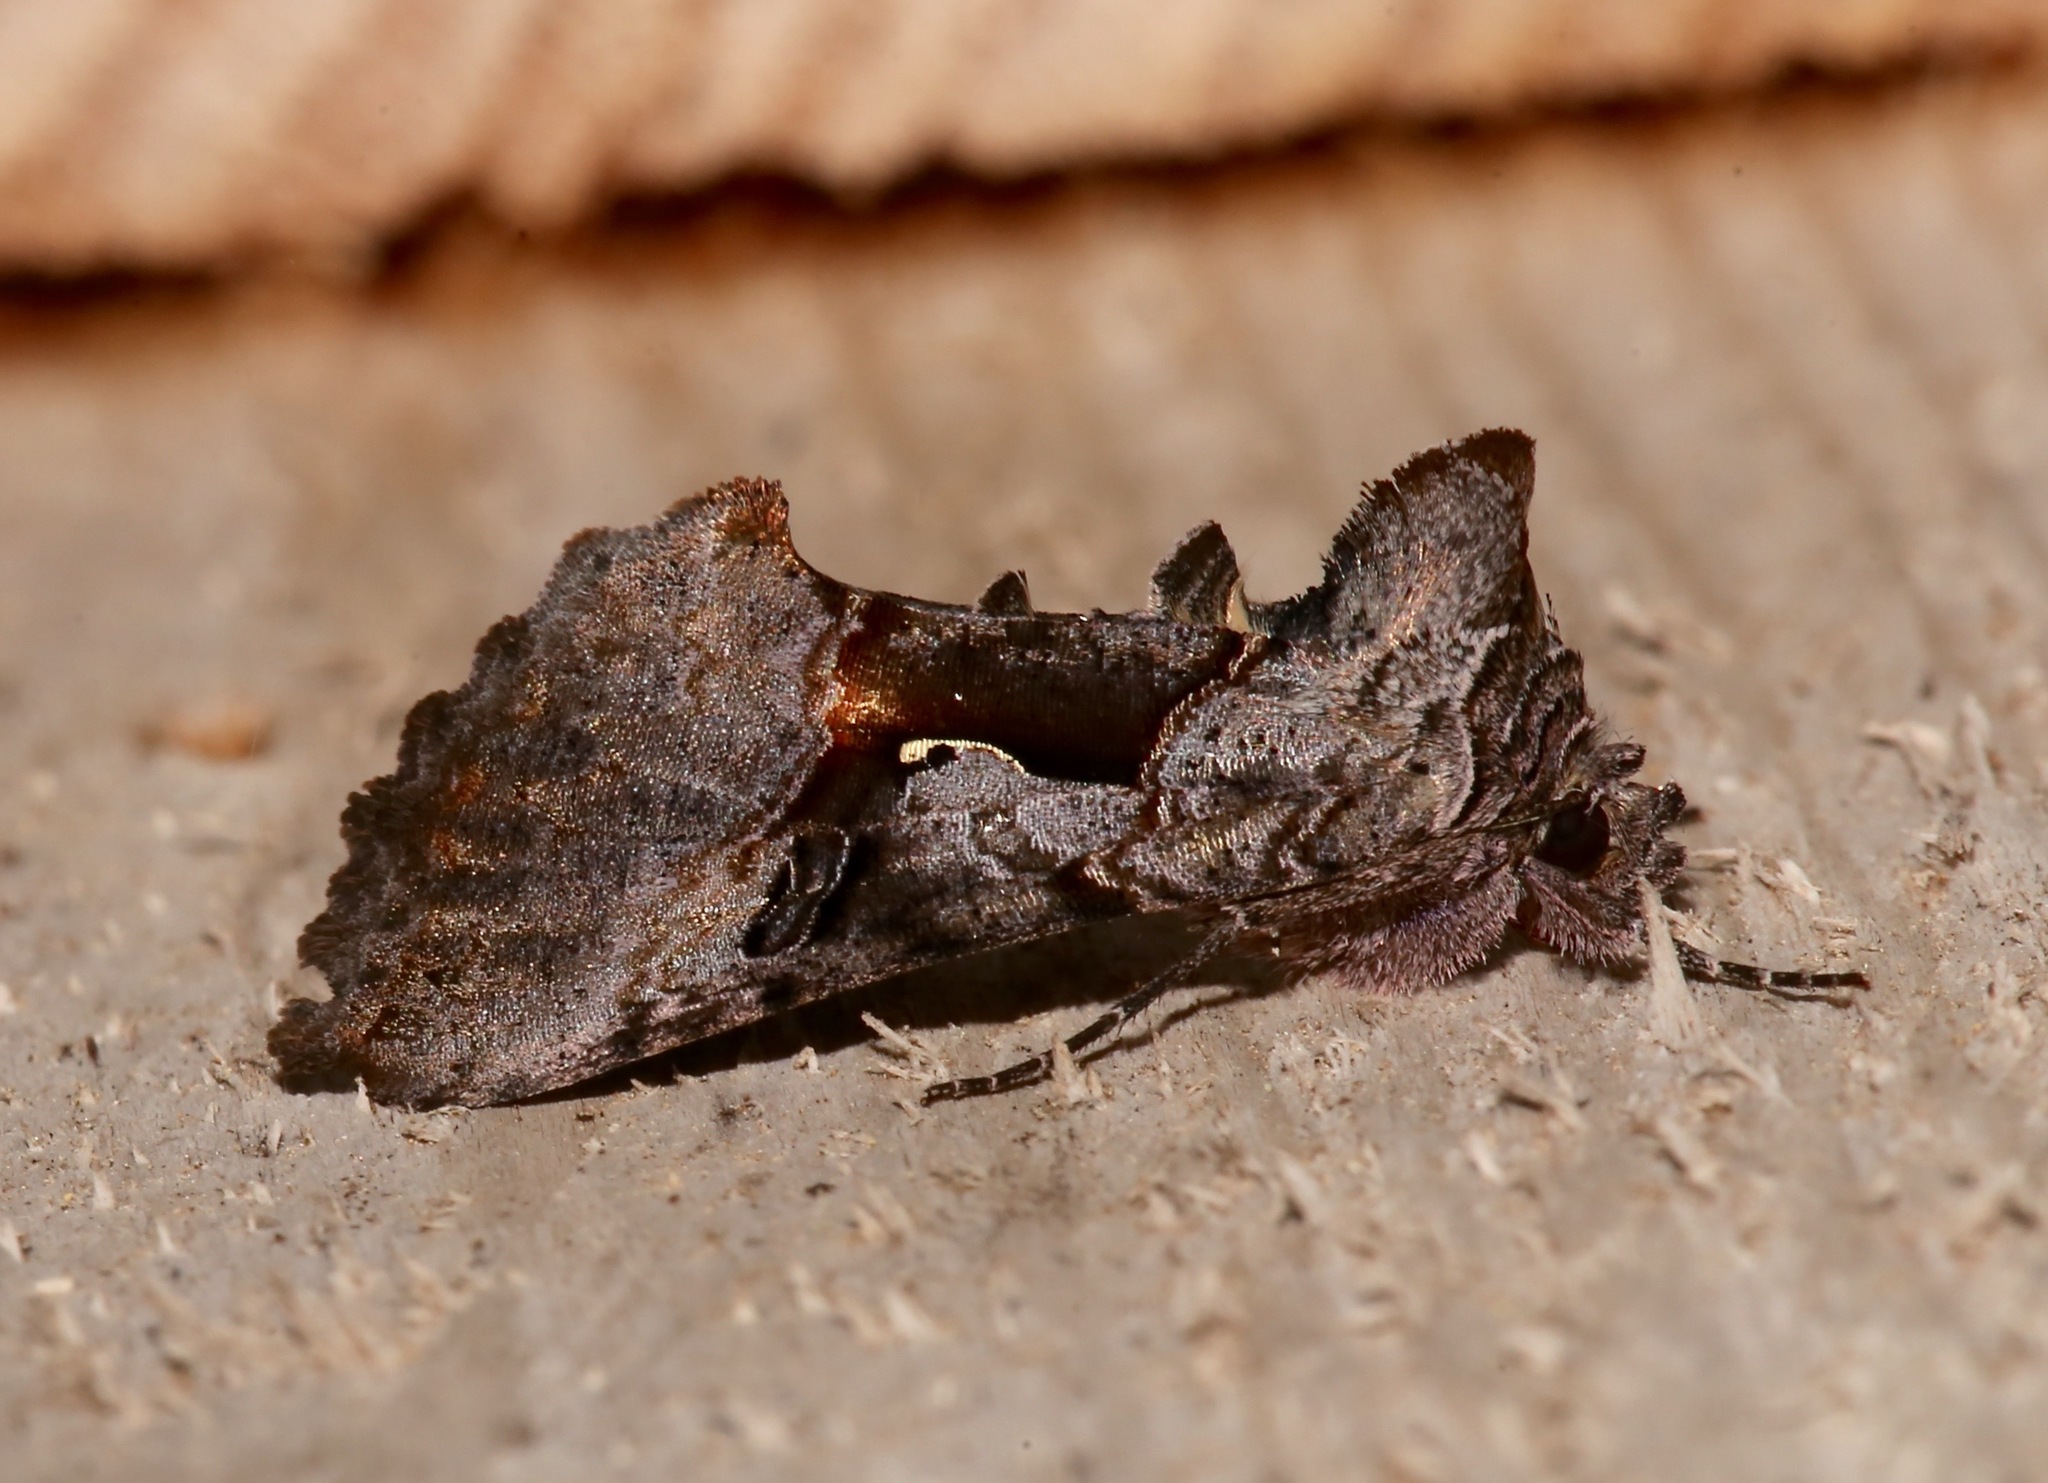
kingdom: Animalia
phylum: Arthropoda
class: Insecta
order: Lepidoptera
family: Noctuidae
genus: Syngrapha
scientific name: Syngrapha epigaea
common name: Epigaea looper moth
